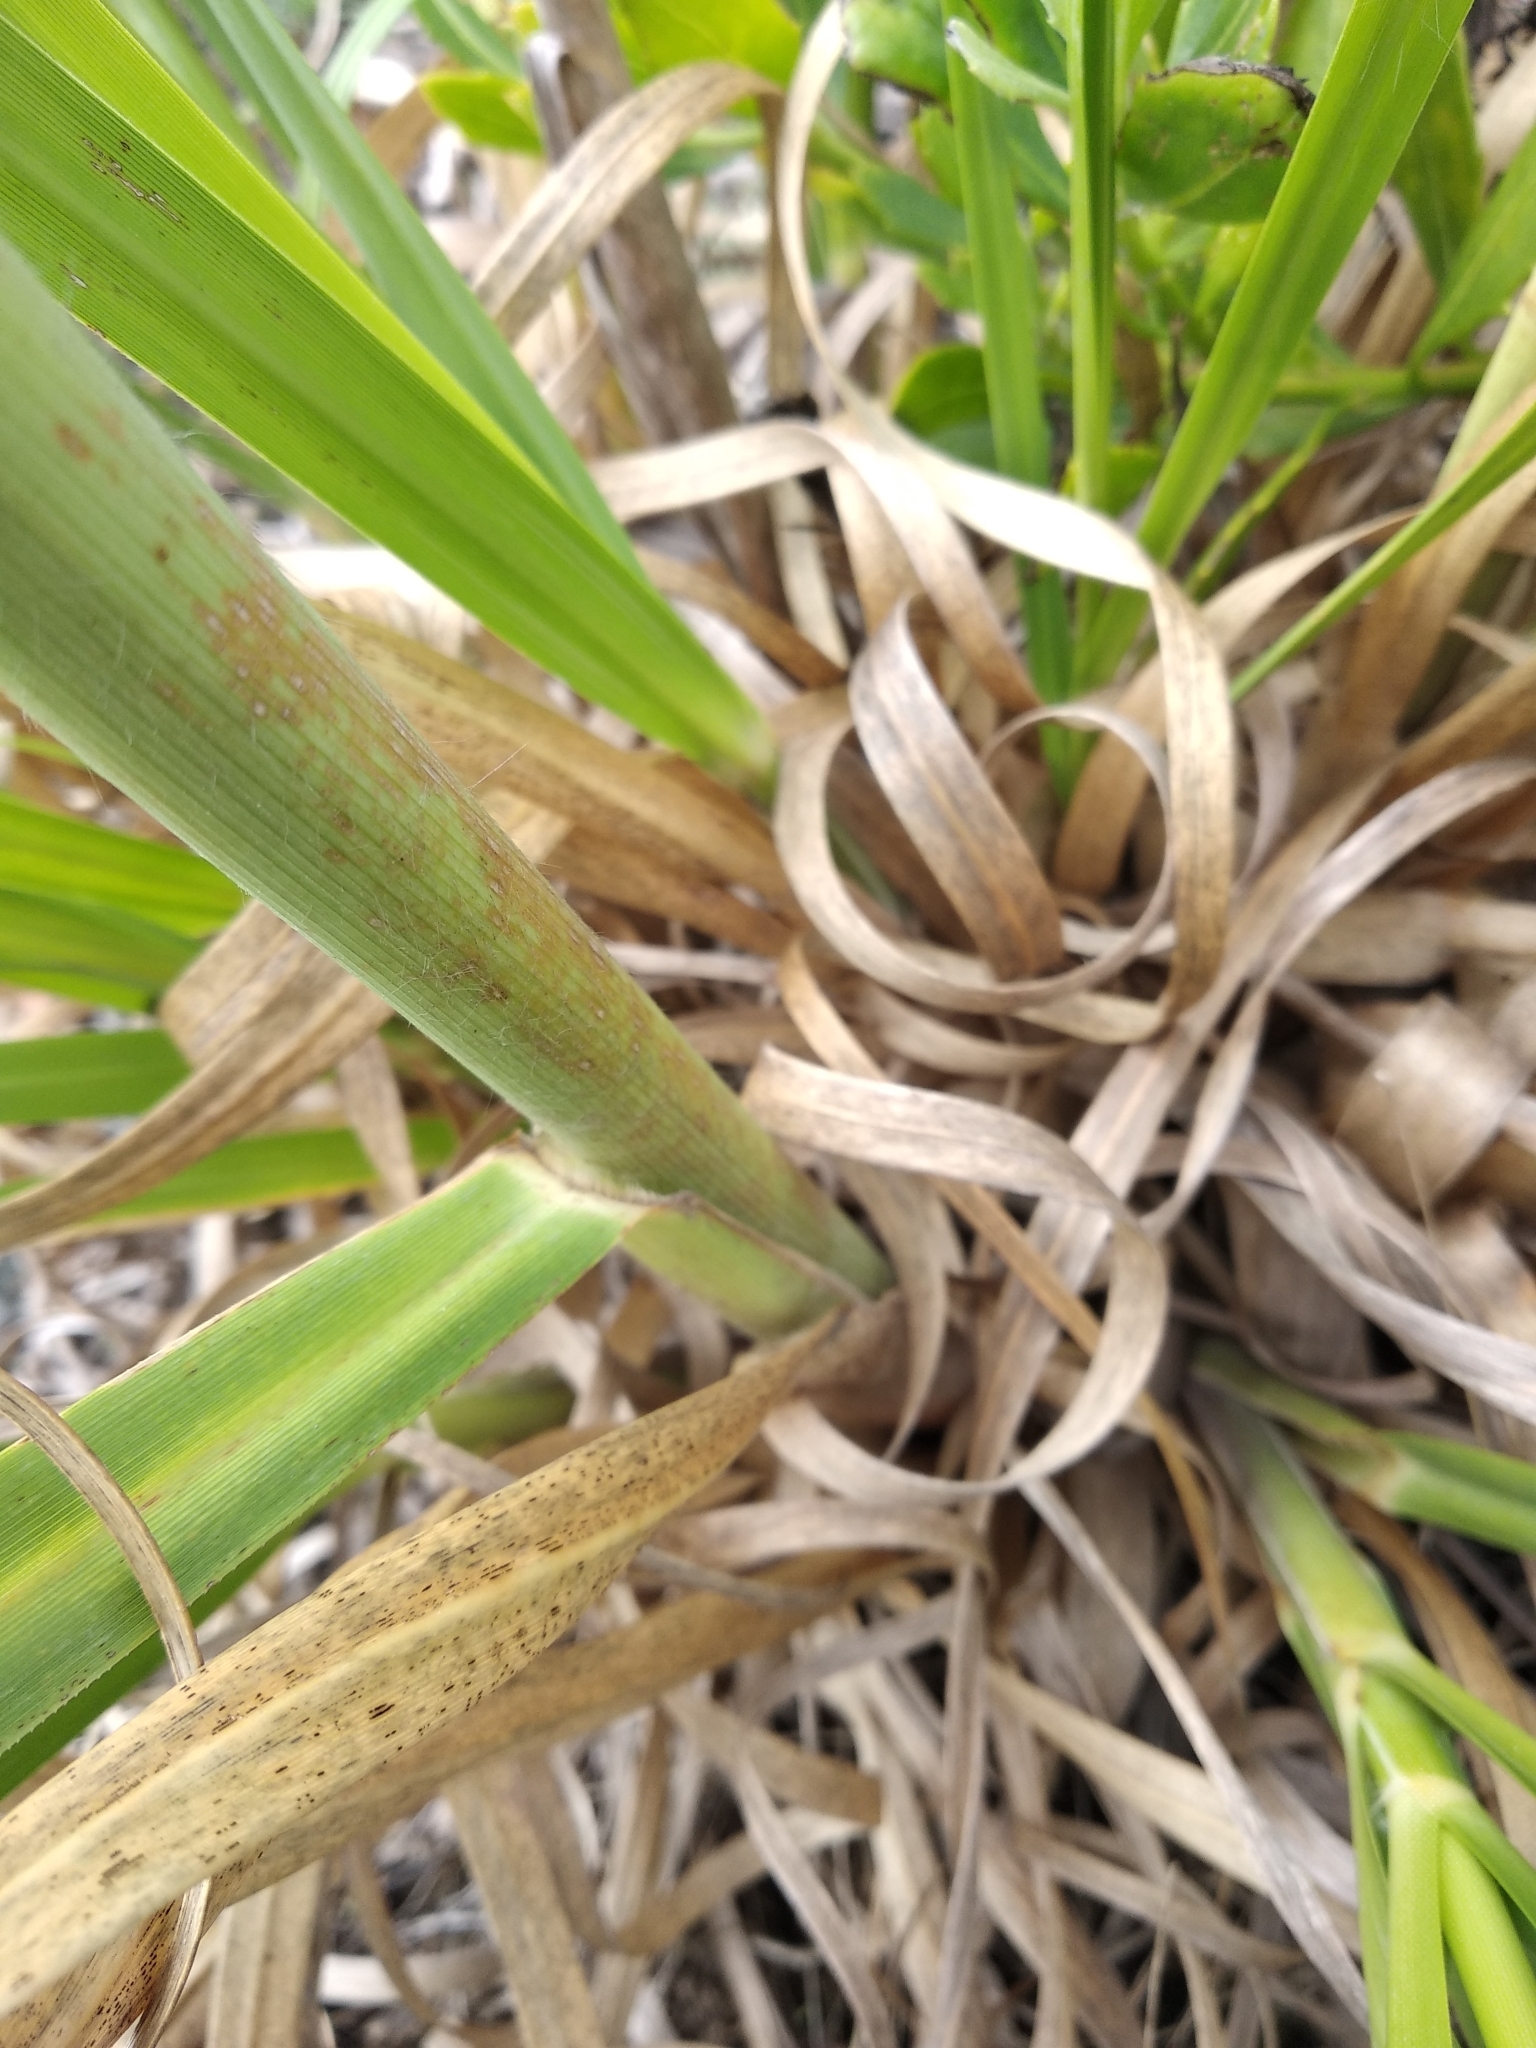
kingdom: Plantae
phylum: Tracheophyta
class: Liliopsida
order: Poales
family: Poaceae
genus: Cortaderia
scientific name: Cortaderia jubata
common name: Purple pampas grass
